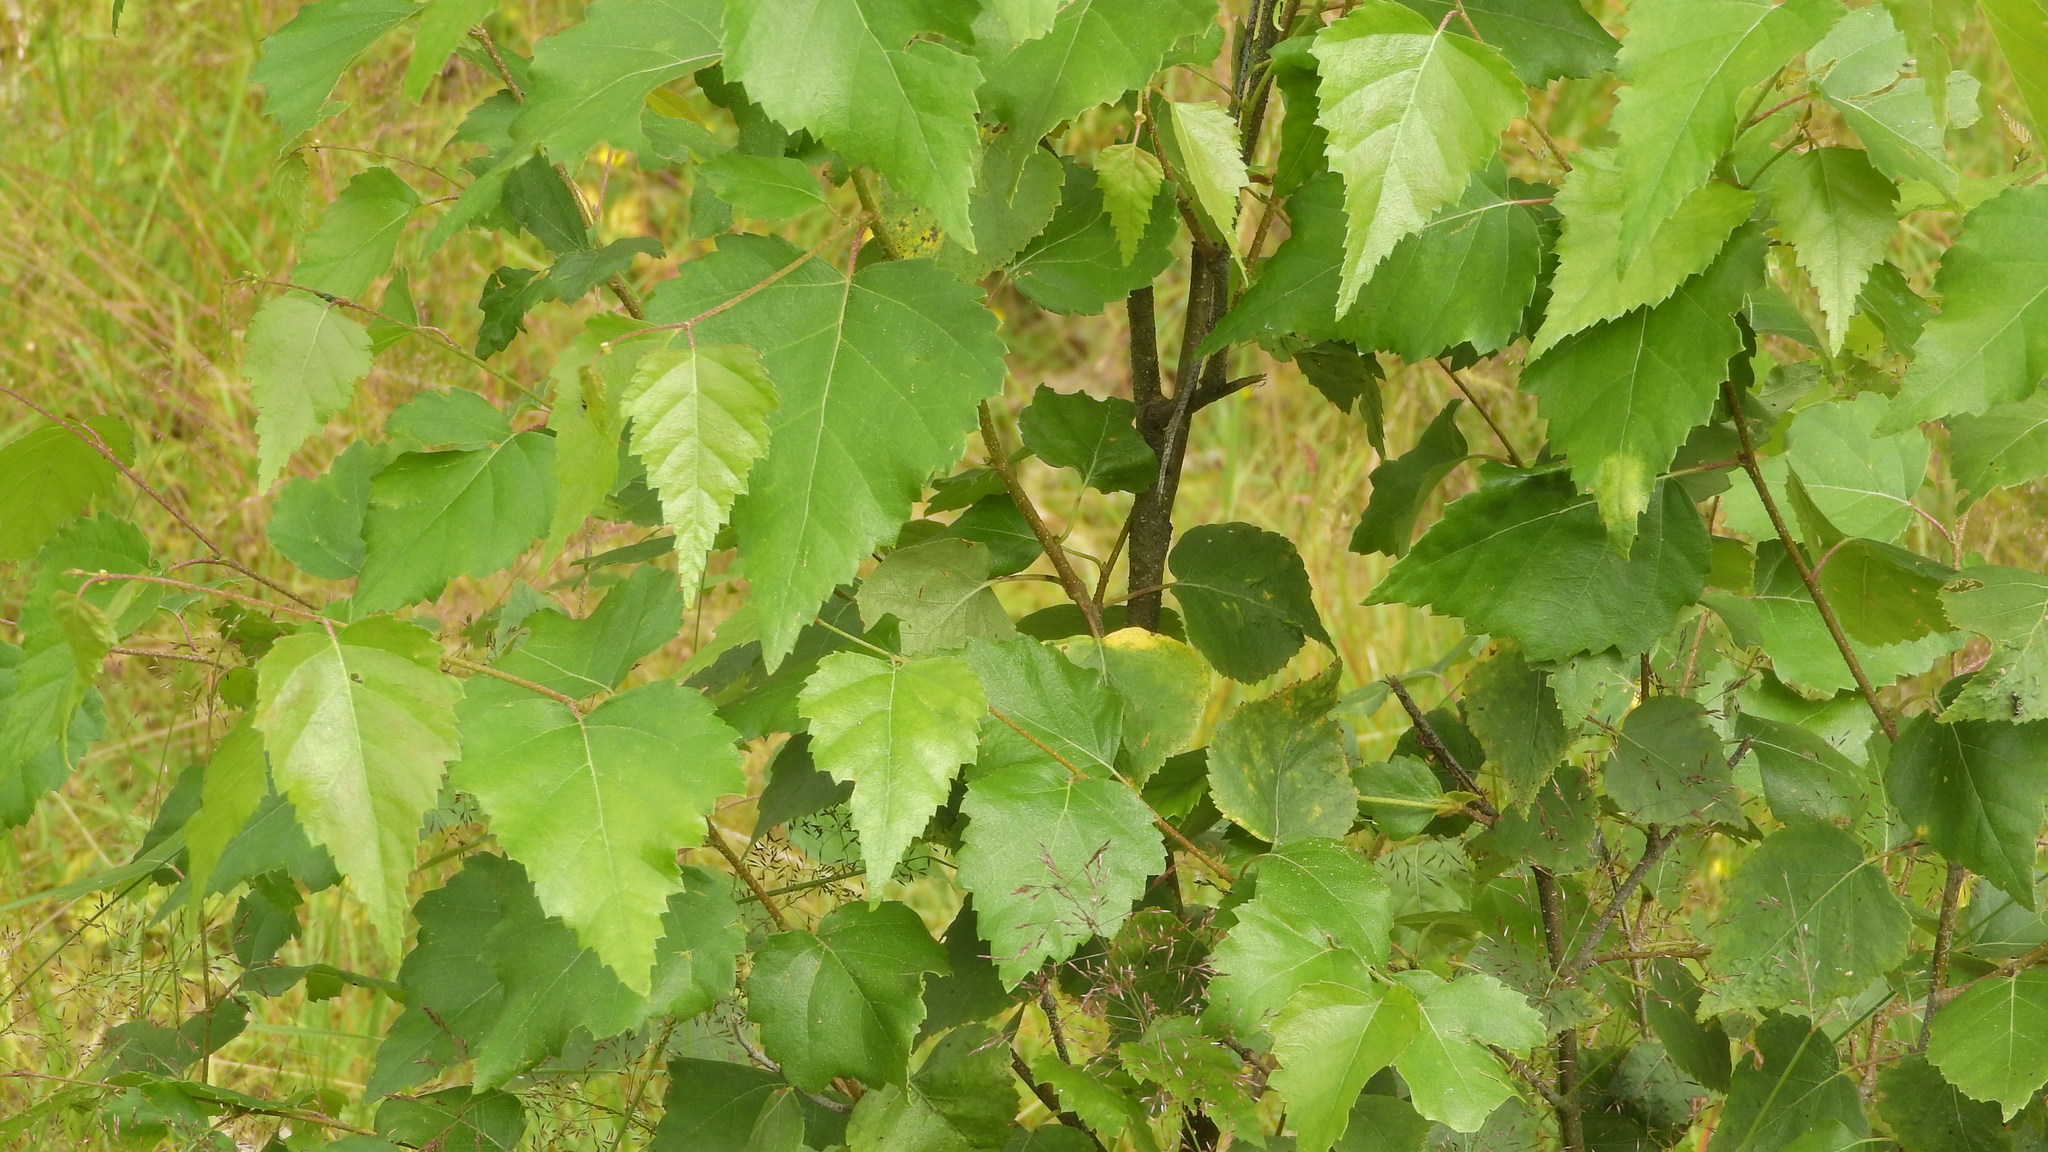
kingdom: Plantae
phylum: Tracheophyta
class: Magnoliopsida
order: Fagales
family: Betulaceae
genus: Betula
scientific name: Betula pendula
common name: Silver birch
